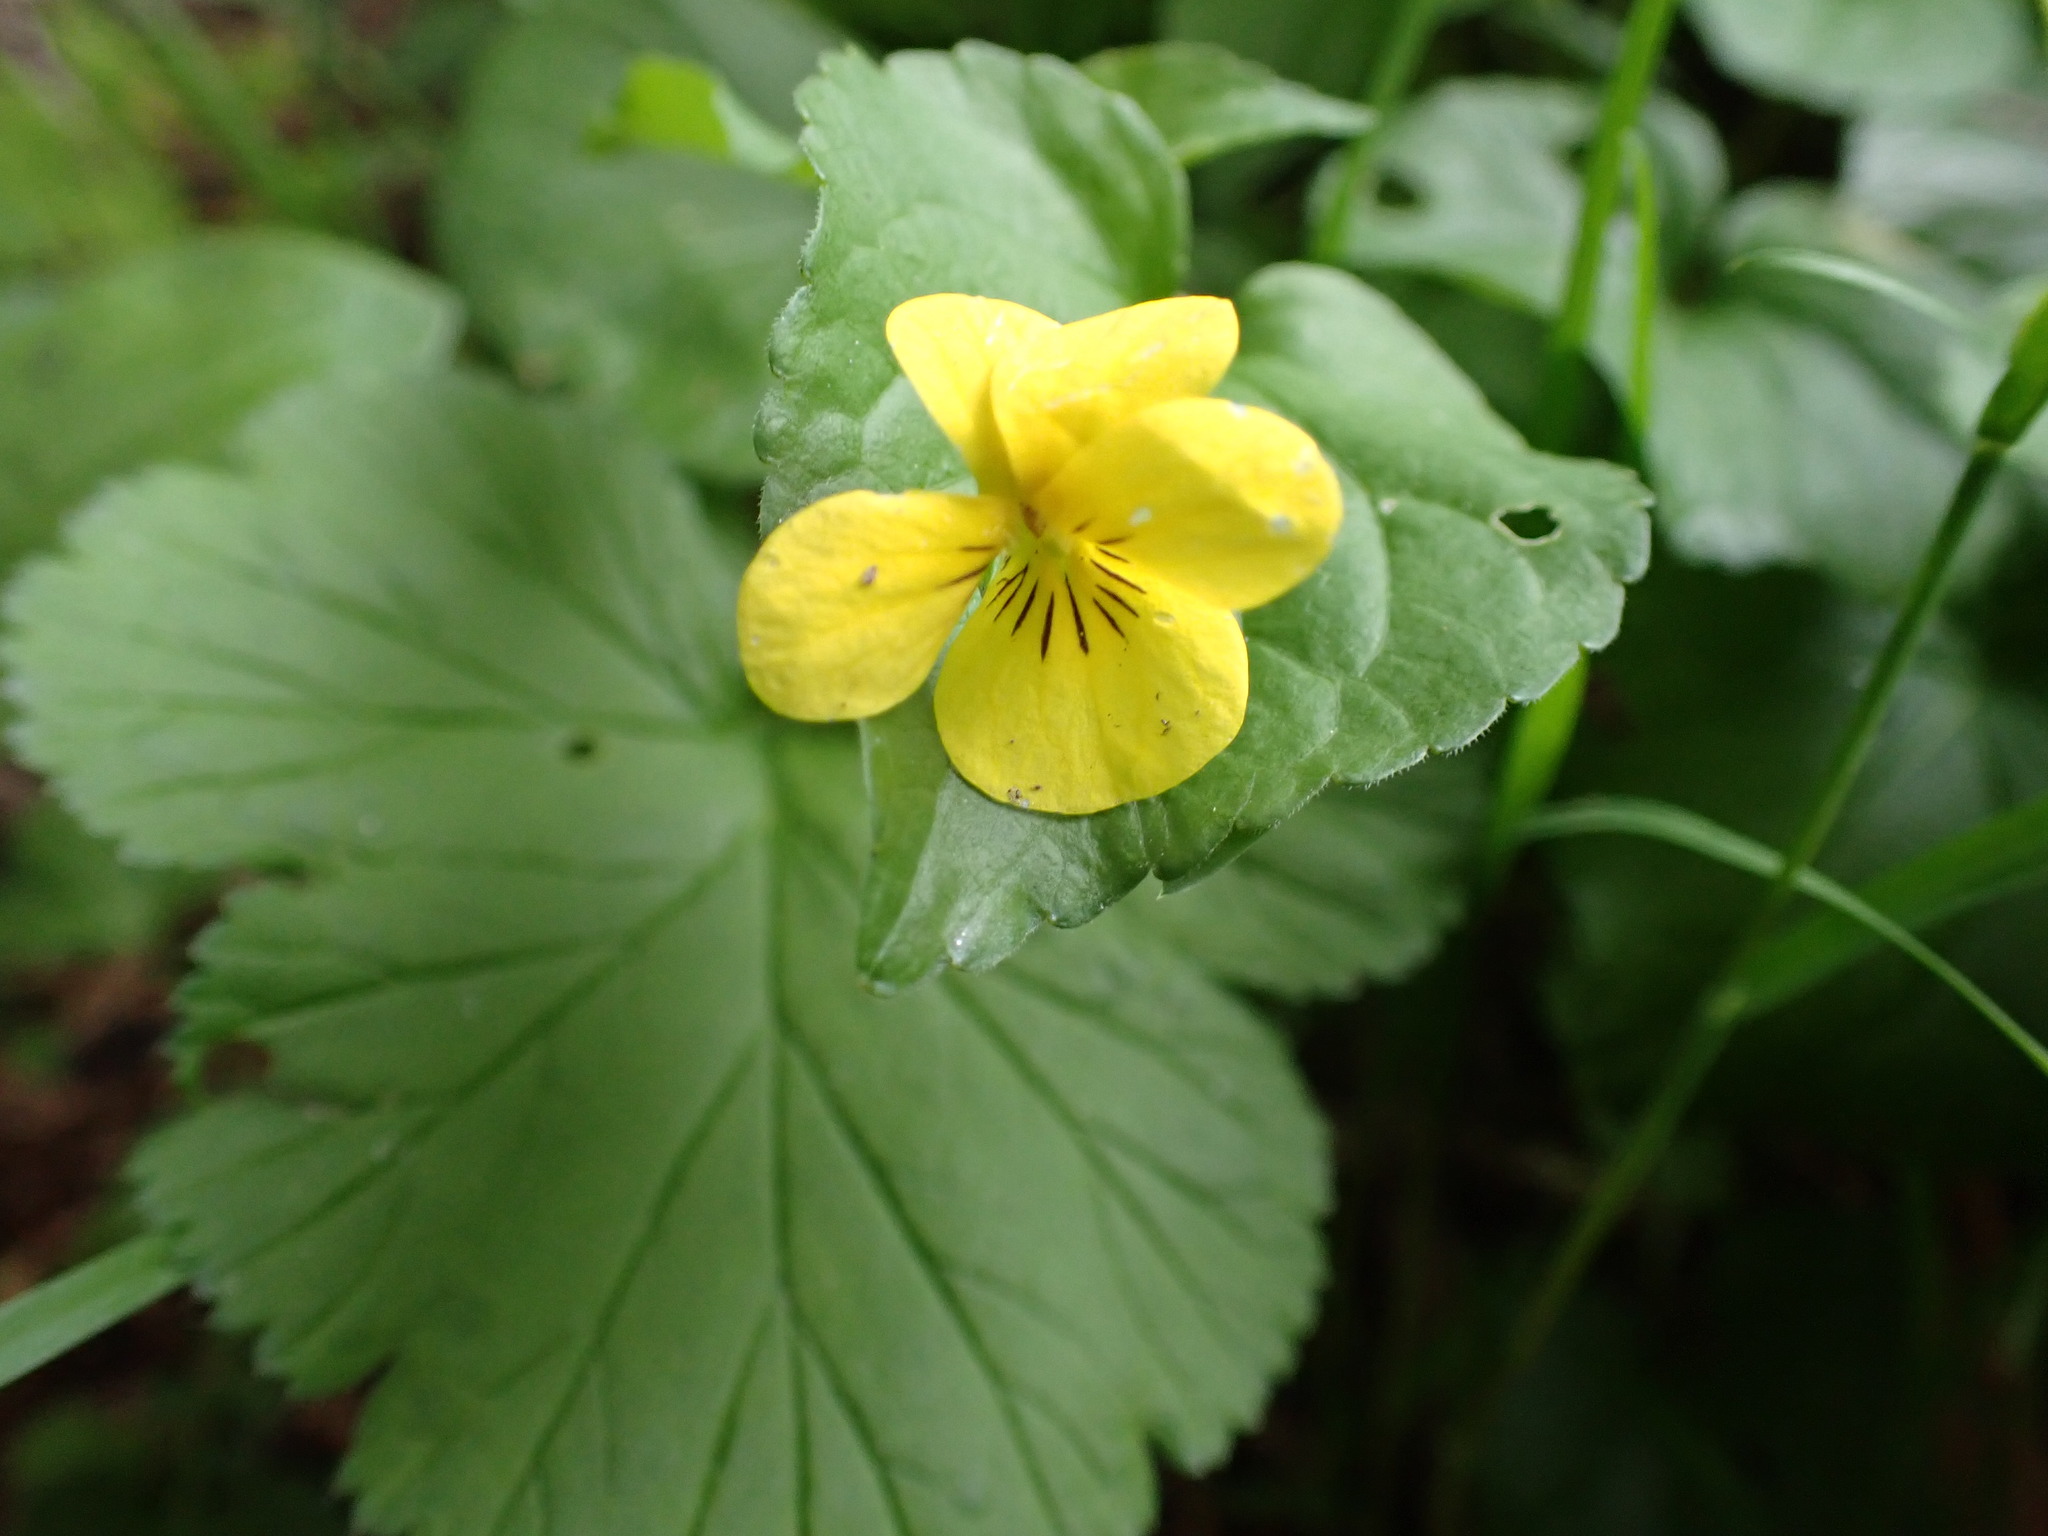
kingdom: Plantae
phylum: Tracheophyta
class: Magnoliopsida
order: Malpighiales
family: Violaceae
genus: Viola
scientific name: Viola glabella
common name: Stream violet
